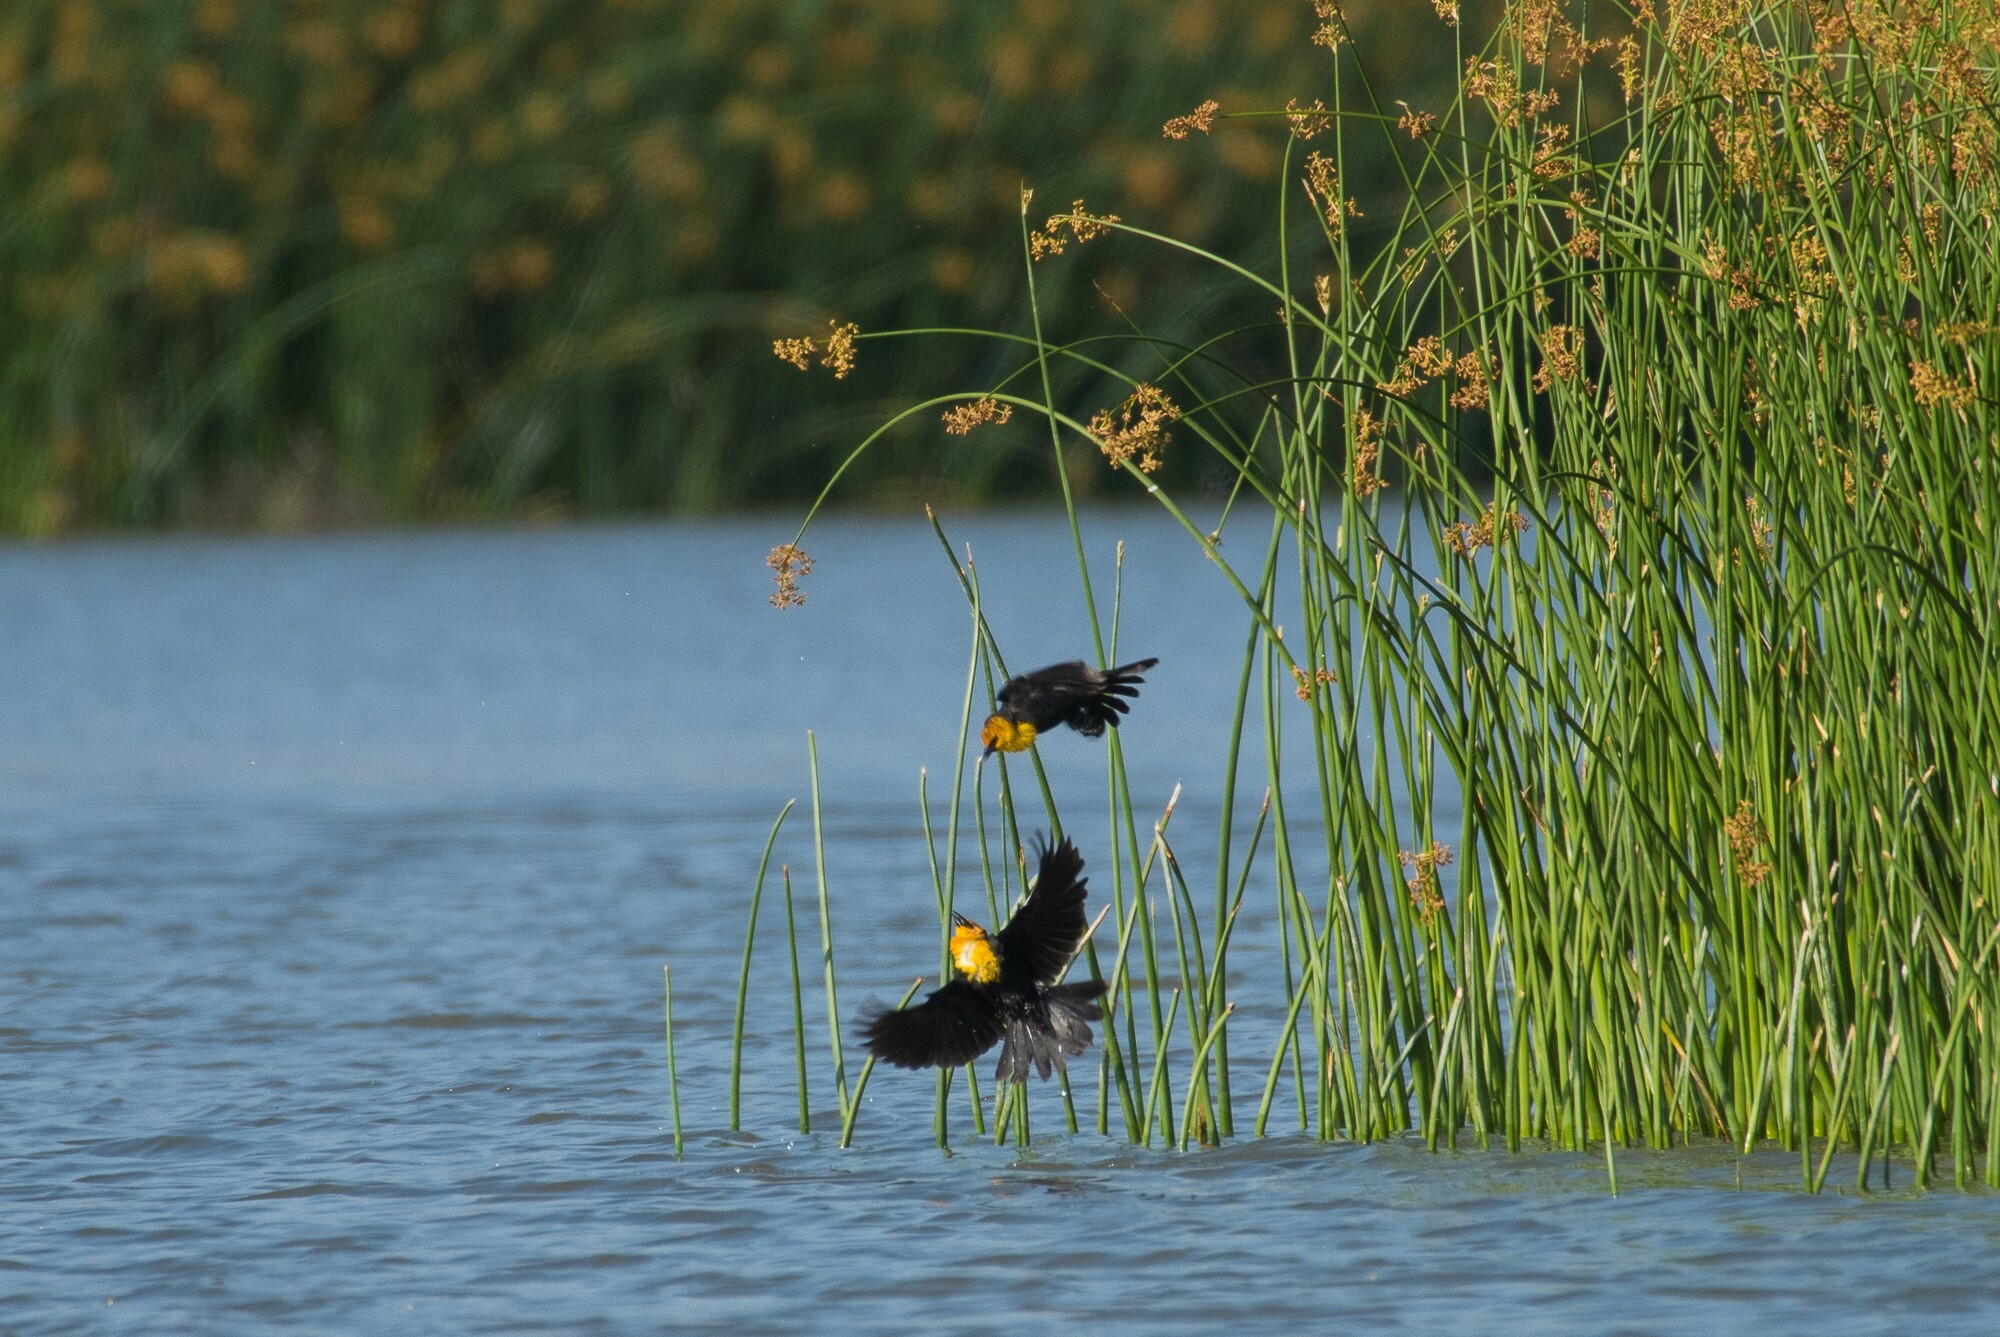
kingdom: Animalia
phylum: Chordata
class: Aves
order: Passeriformes
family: Icteridae
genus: Xanthocephalus
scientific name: Xanthocephalus xanthocephalus
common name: Yellow-headed blackbird
